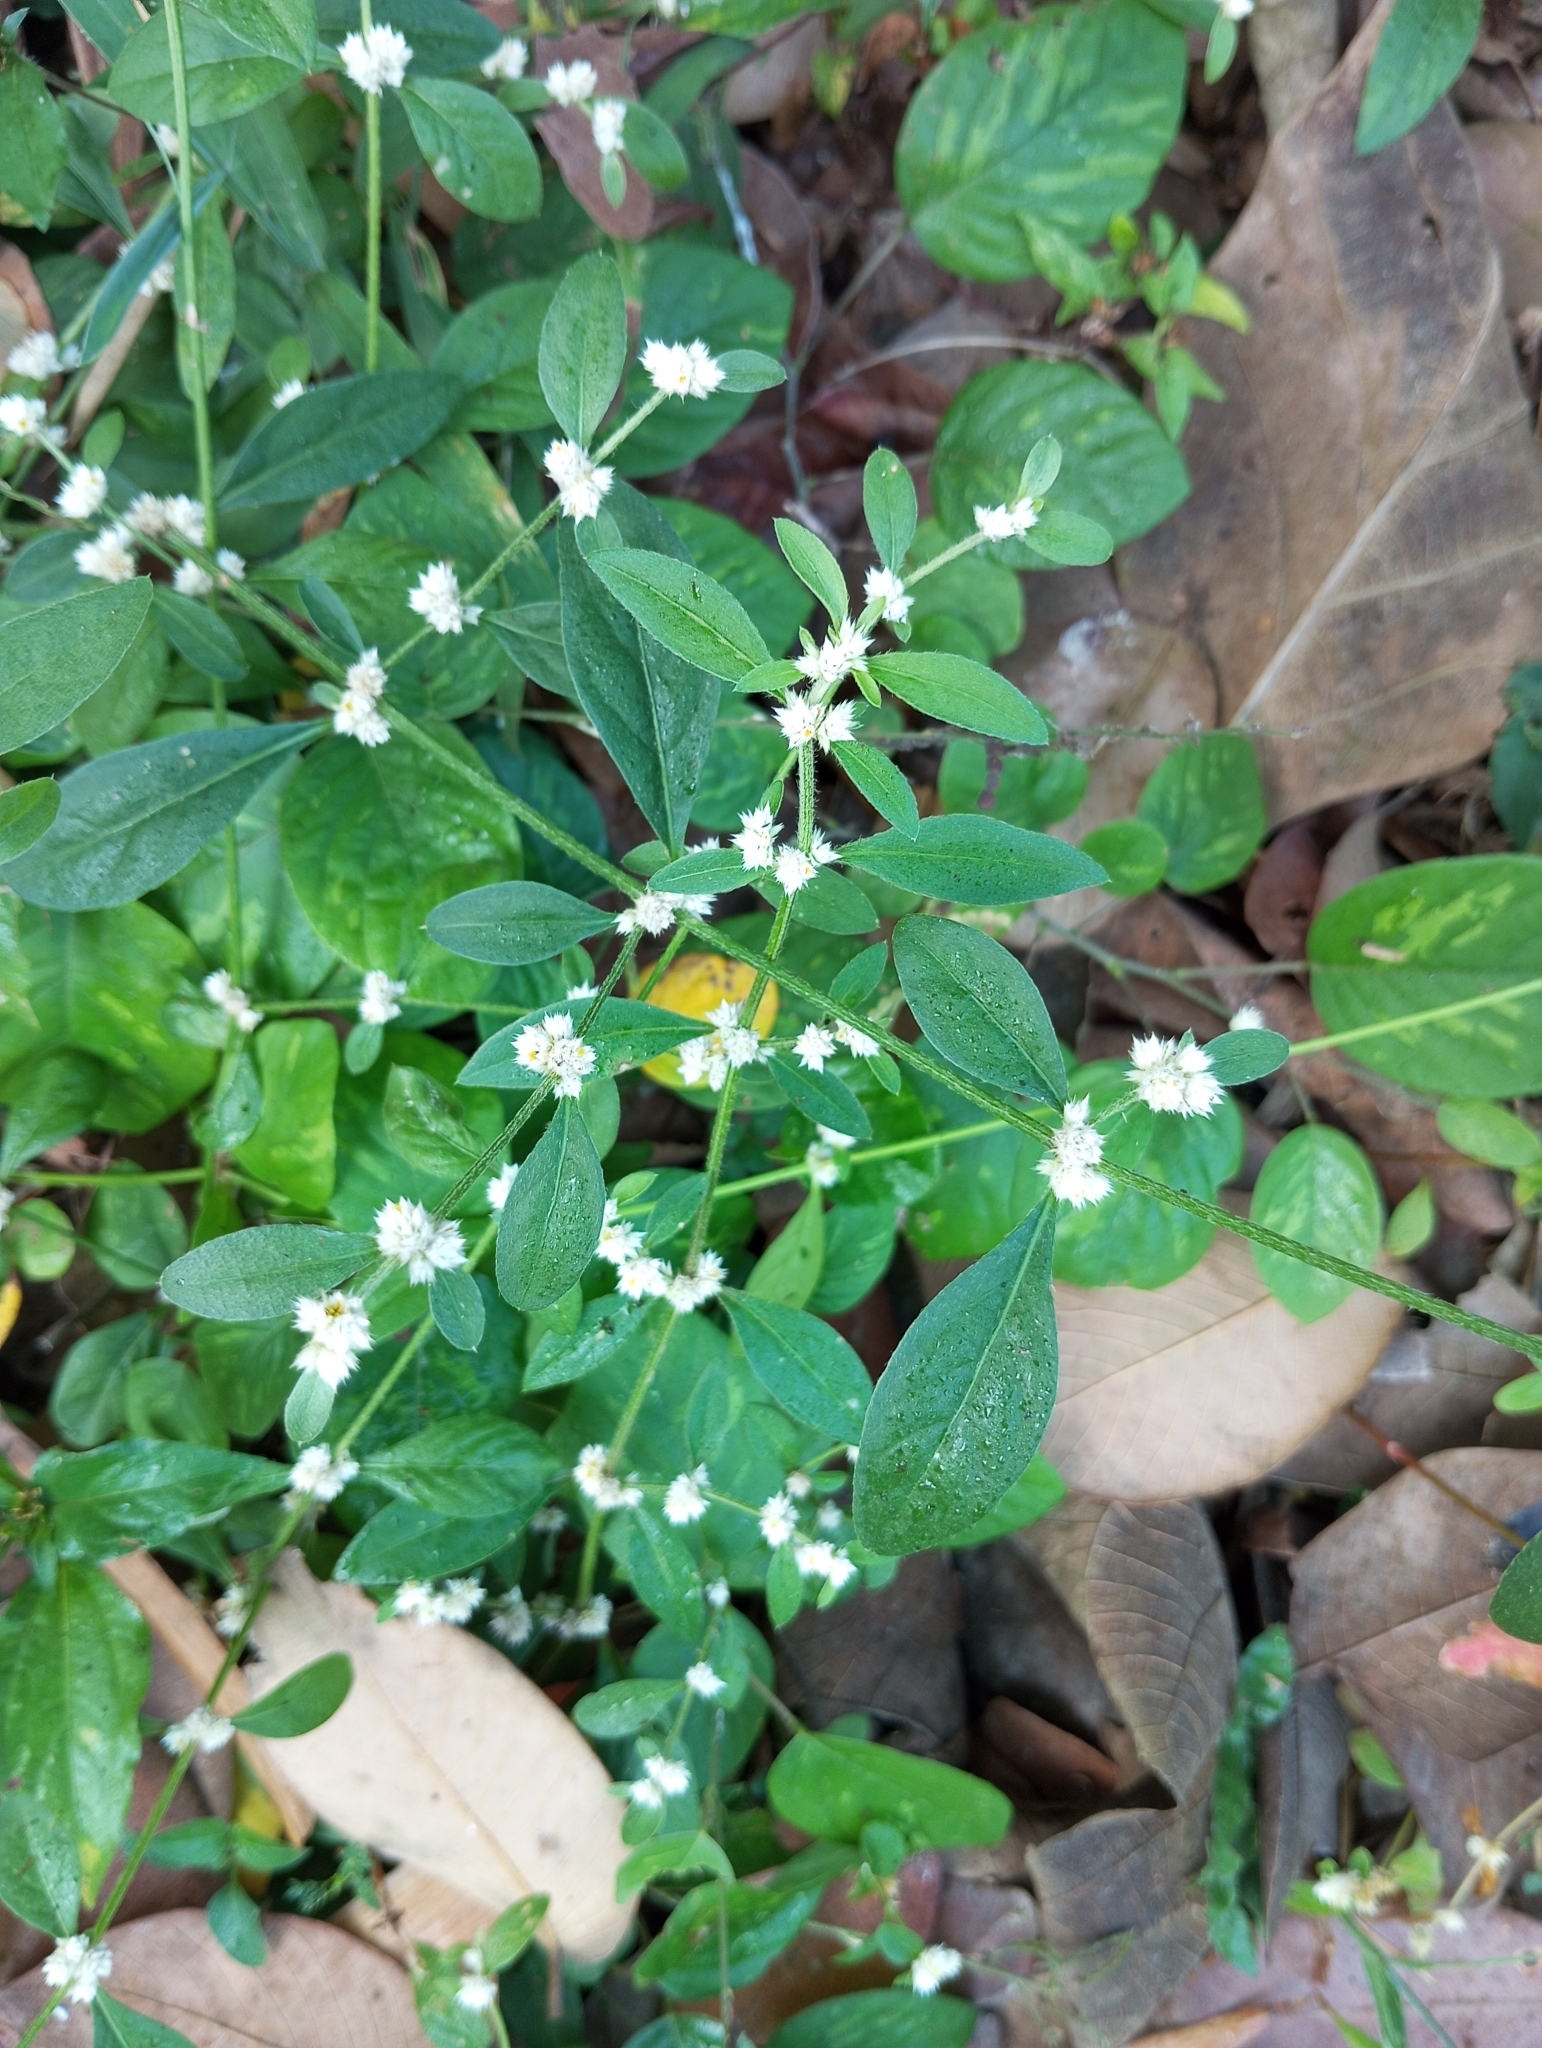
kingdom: Plantae
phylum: Tracheophyta
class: Magnoliopsida
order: Caryophyllales
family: Amaranthaceae
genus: Alternanthera
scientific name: Alternanthera ficoidea
